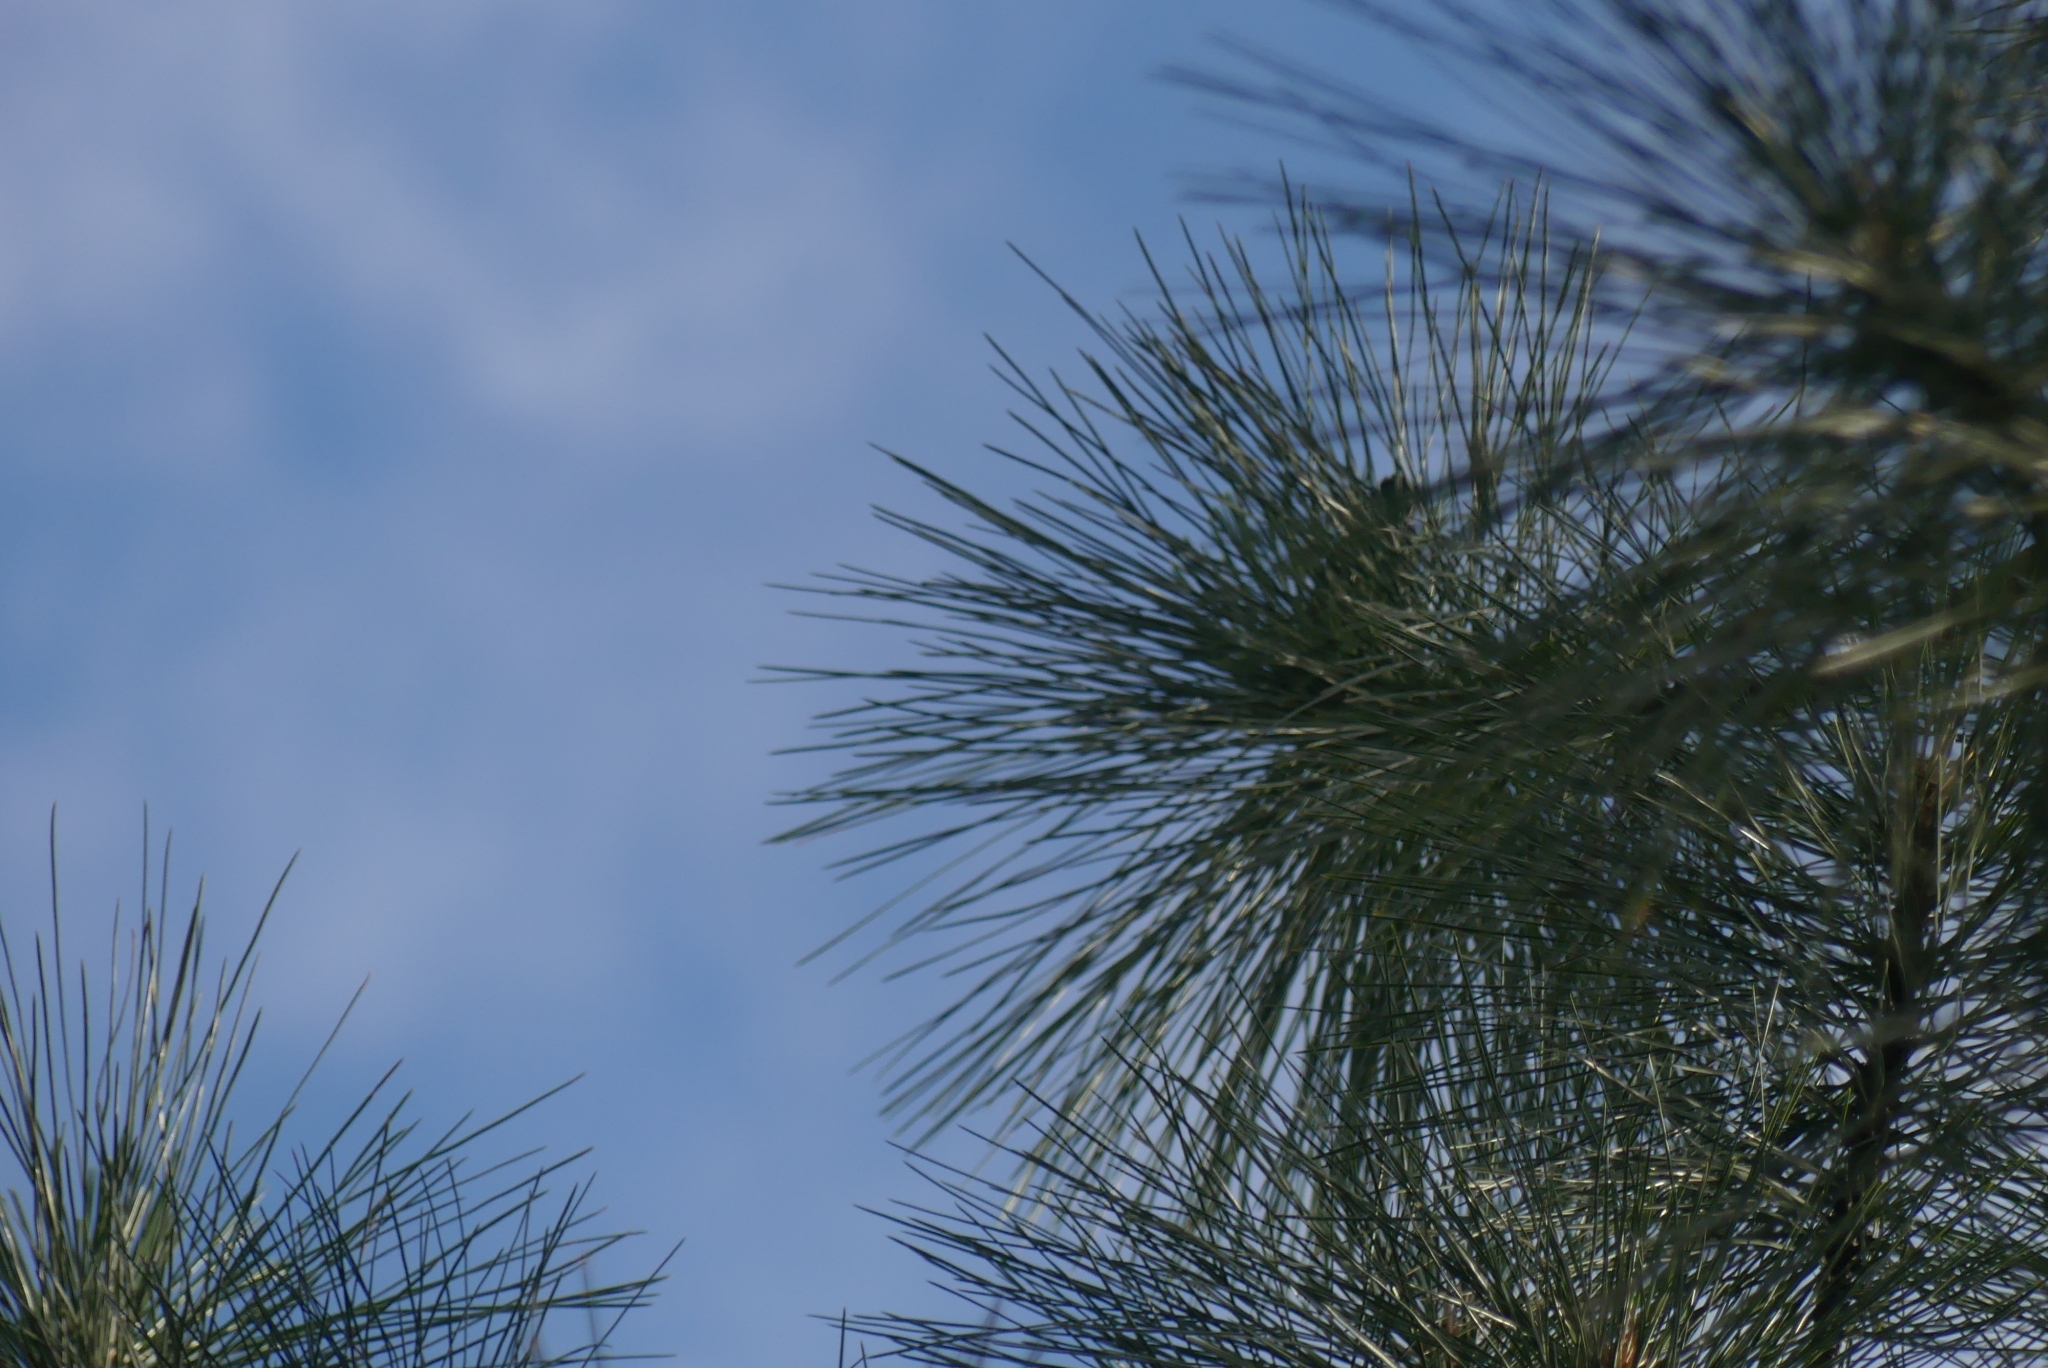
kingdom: Plantae
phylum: Tracheophyta
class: Pinopsida
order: Pinales
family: Pinaceae
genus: Pinus
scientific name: Pinus ponderosa
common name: Western yellow-pine
